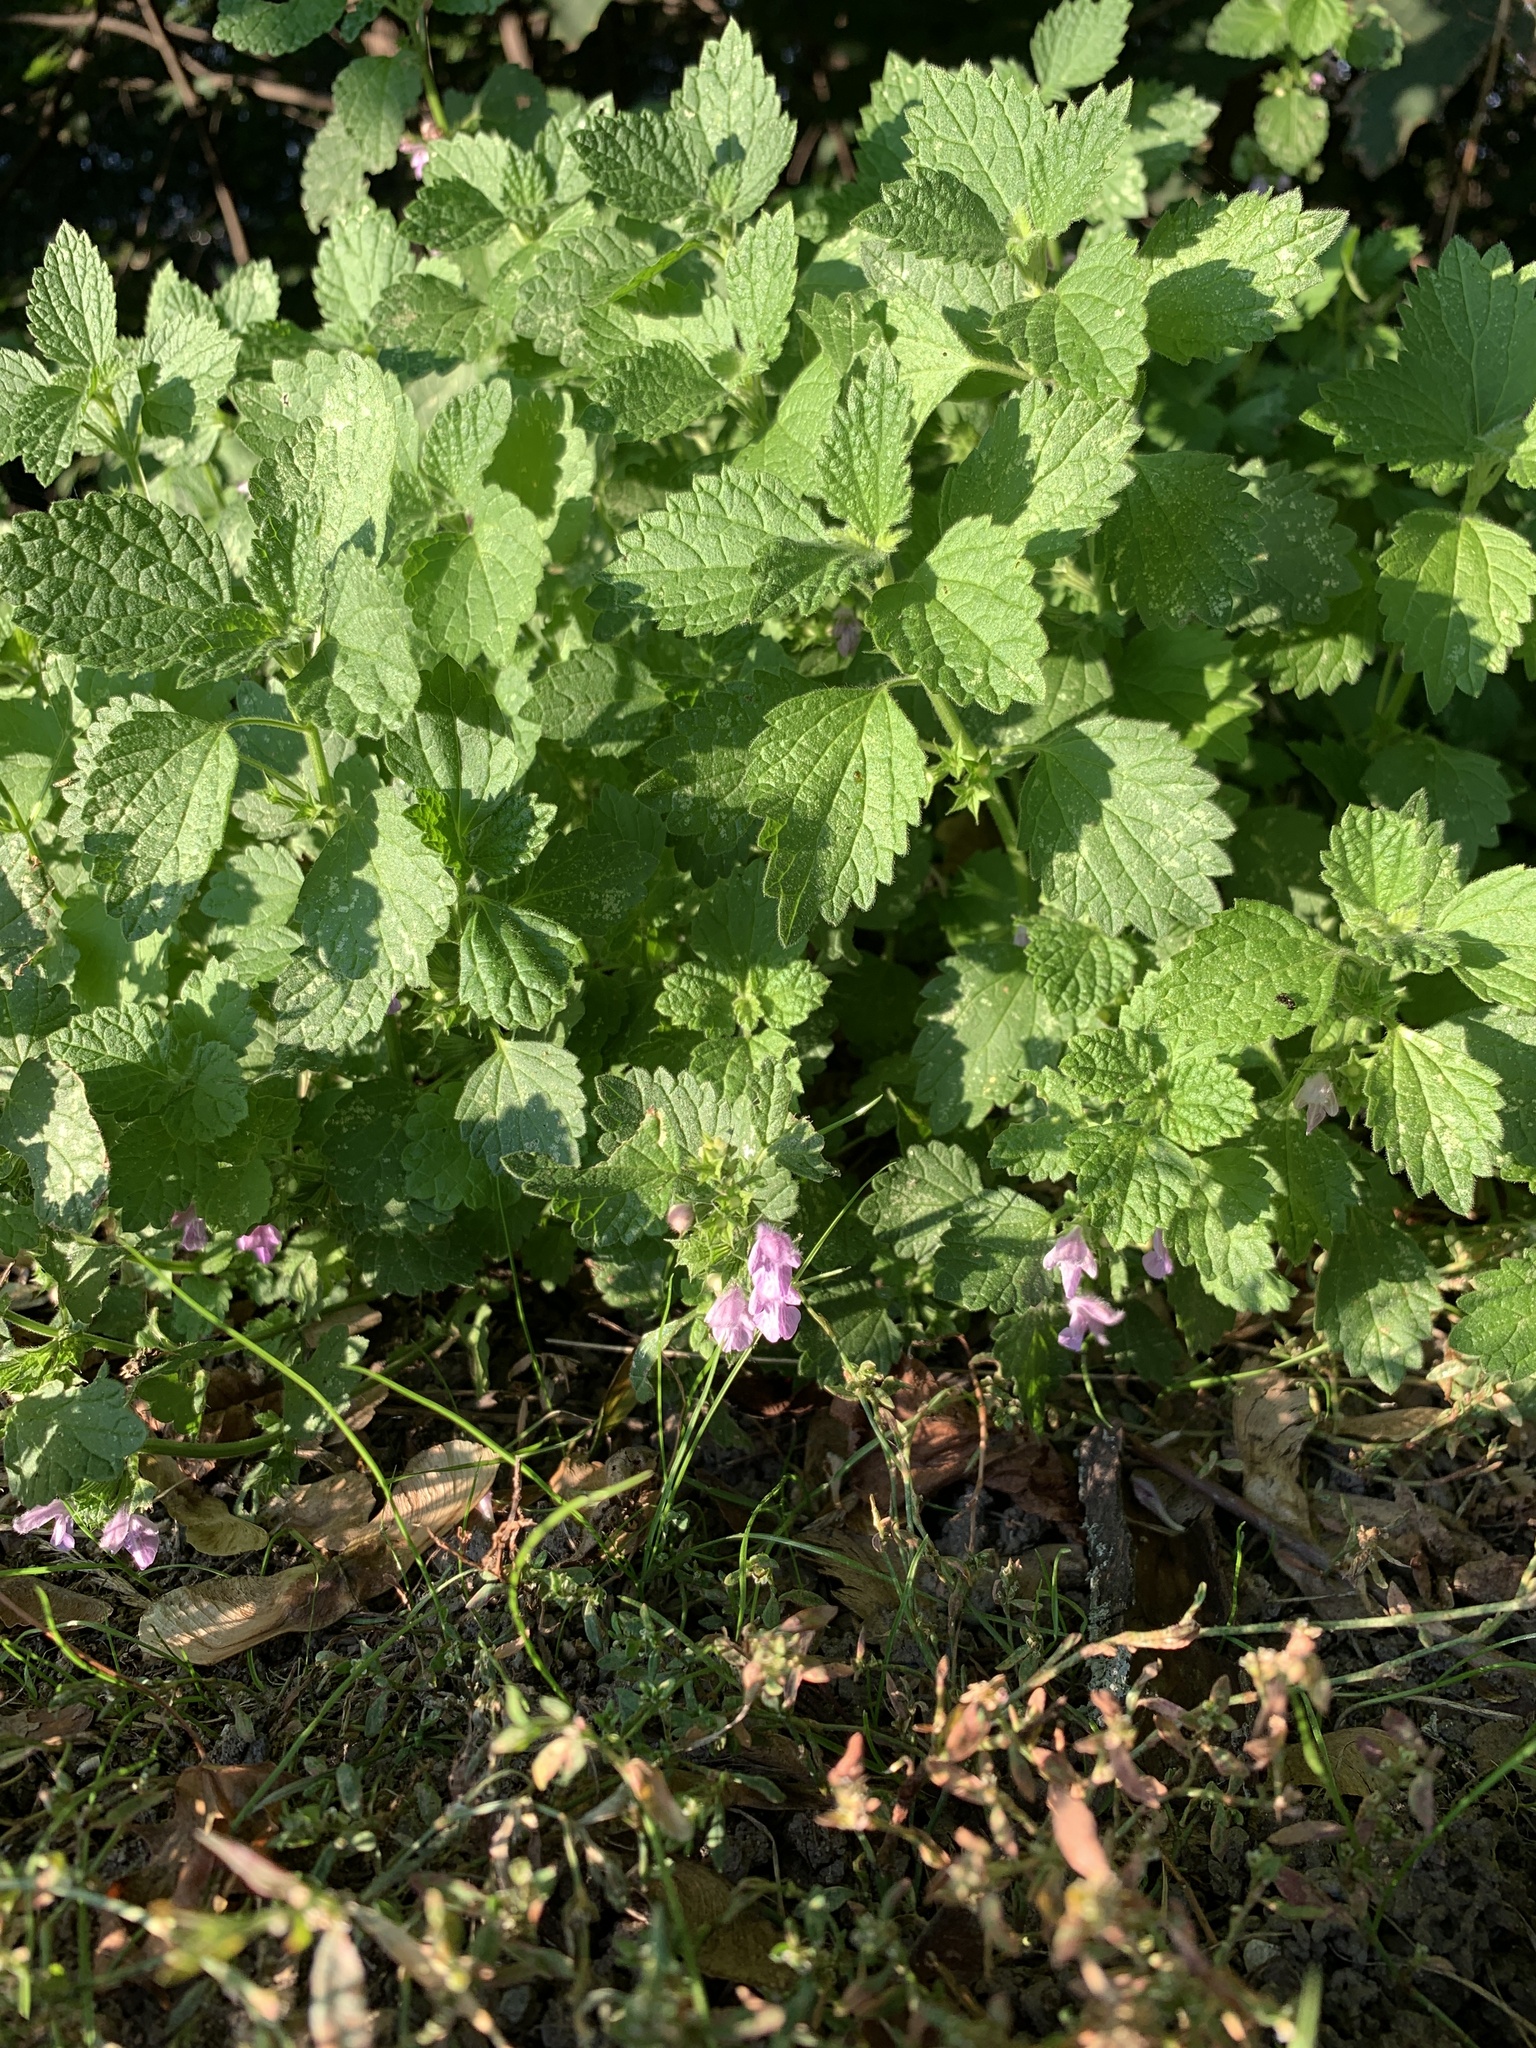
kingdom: Plantae
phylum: Tracheophyta
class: Magnoliopsida
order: Lamiales
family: Lamiaceae
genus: Ballota
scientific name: Ballota nigra
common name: Black horehound
